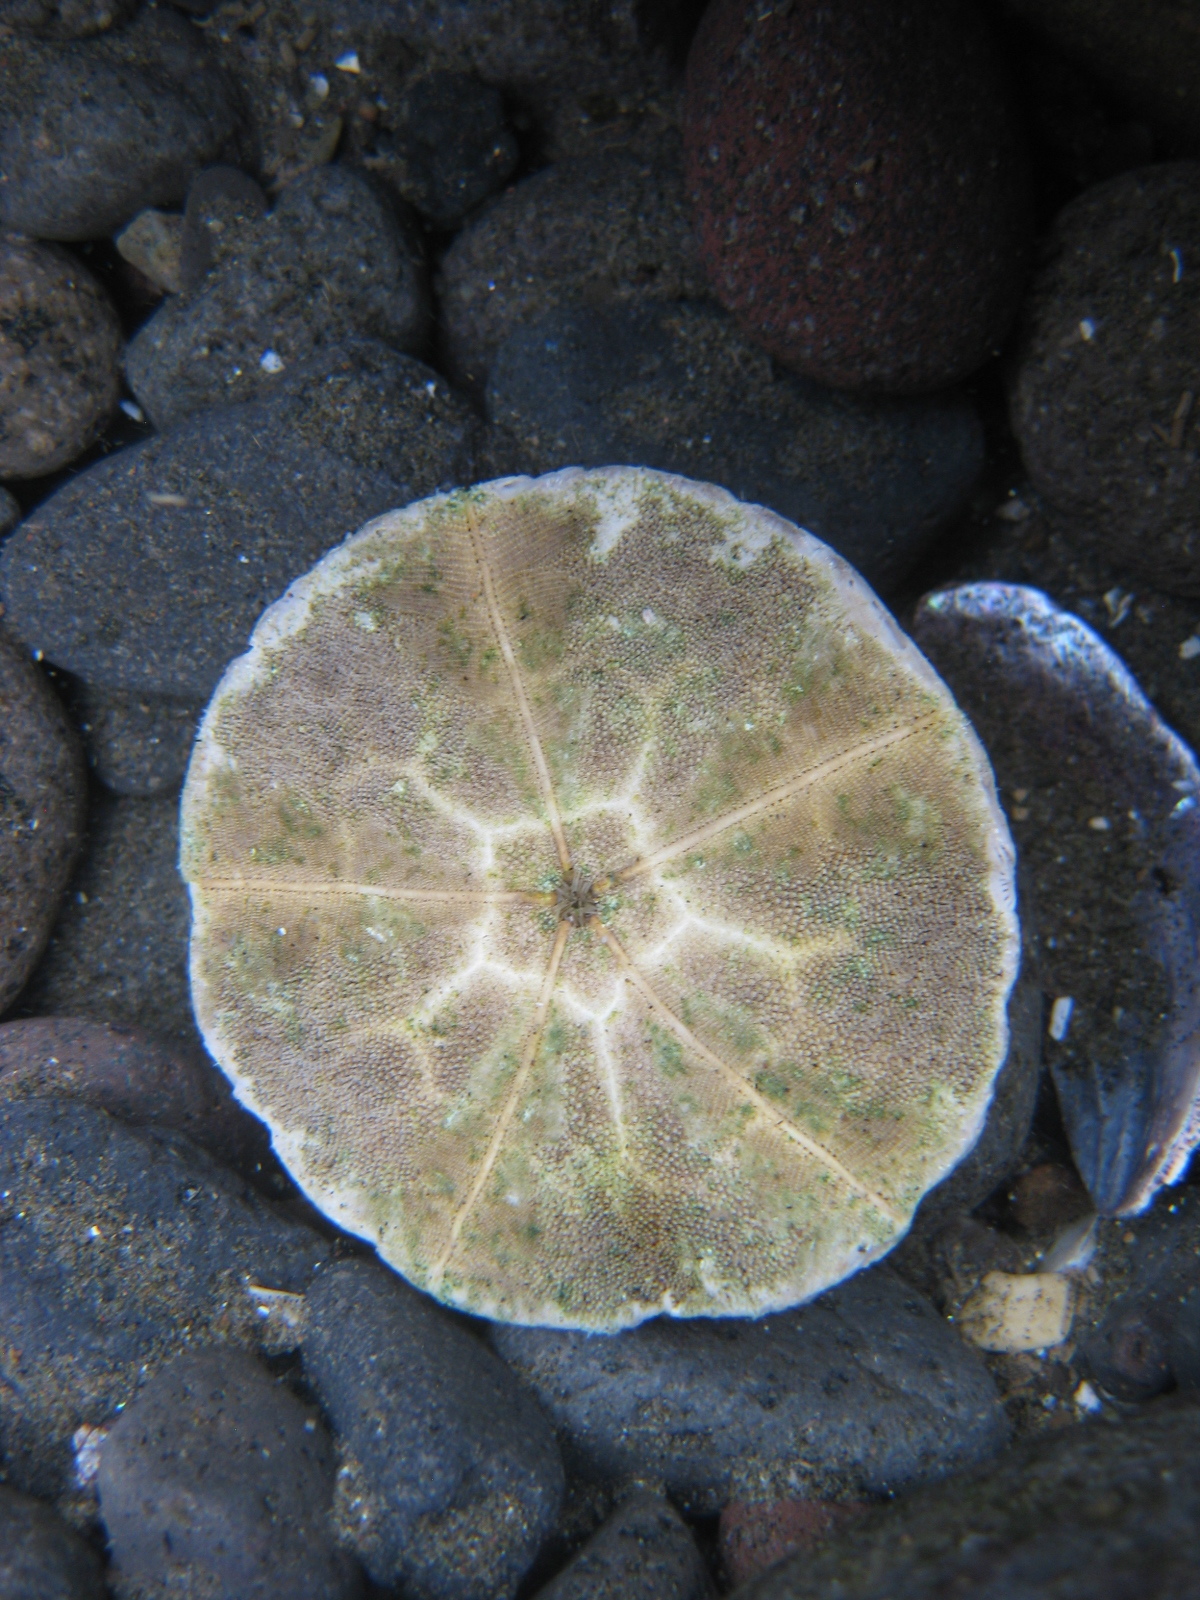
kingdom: Animalia
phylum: Echinodermata
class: Echinoidea
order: Clypeasteroida
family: Clypeasteridae
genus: Fellaster
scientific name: Fellaster zelandiae
